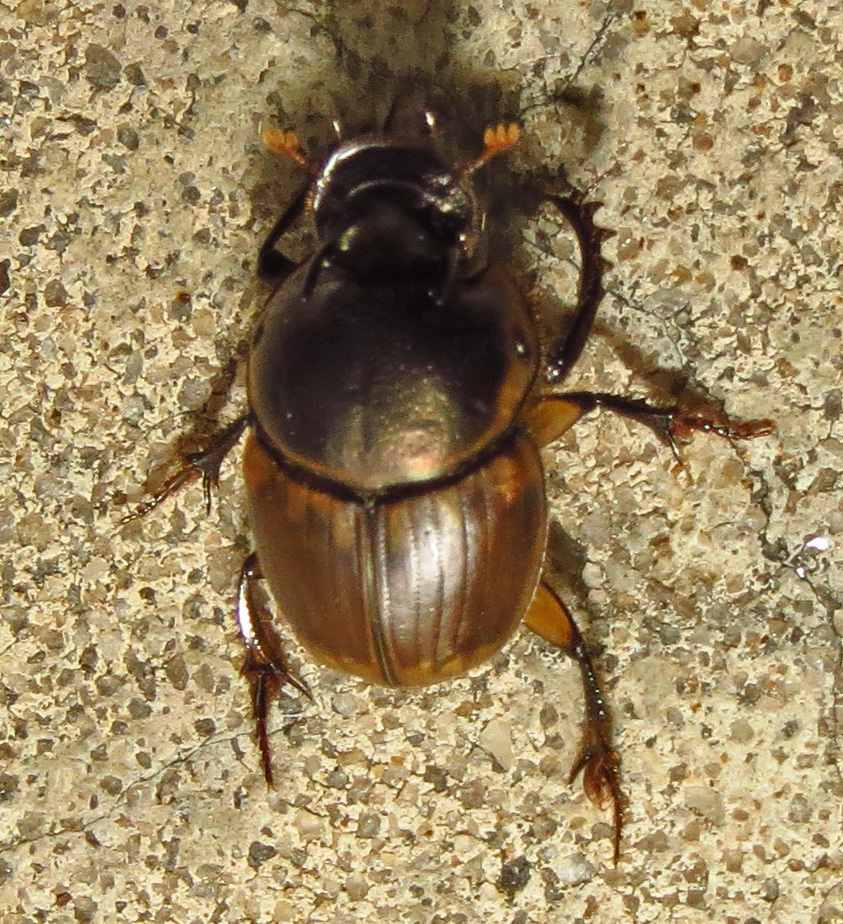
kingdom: Animalia
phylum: Arthropoda
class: Insecta
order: Coleoptera
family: Scarabaeidae
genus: Digitonthophagus
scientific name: Digitonthophagus gazella
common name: Brown dung beetle
